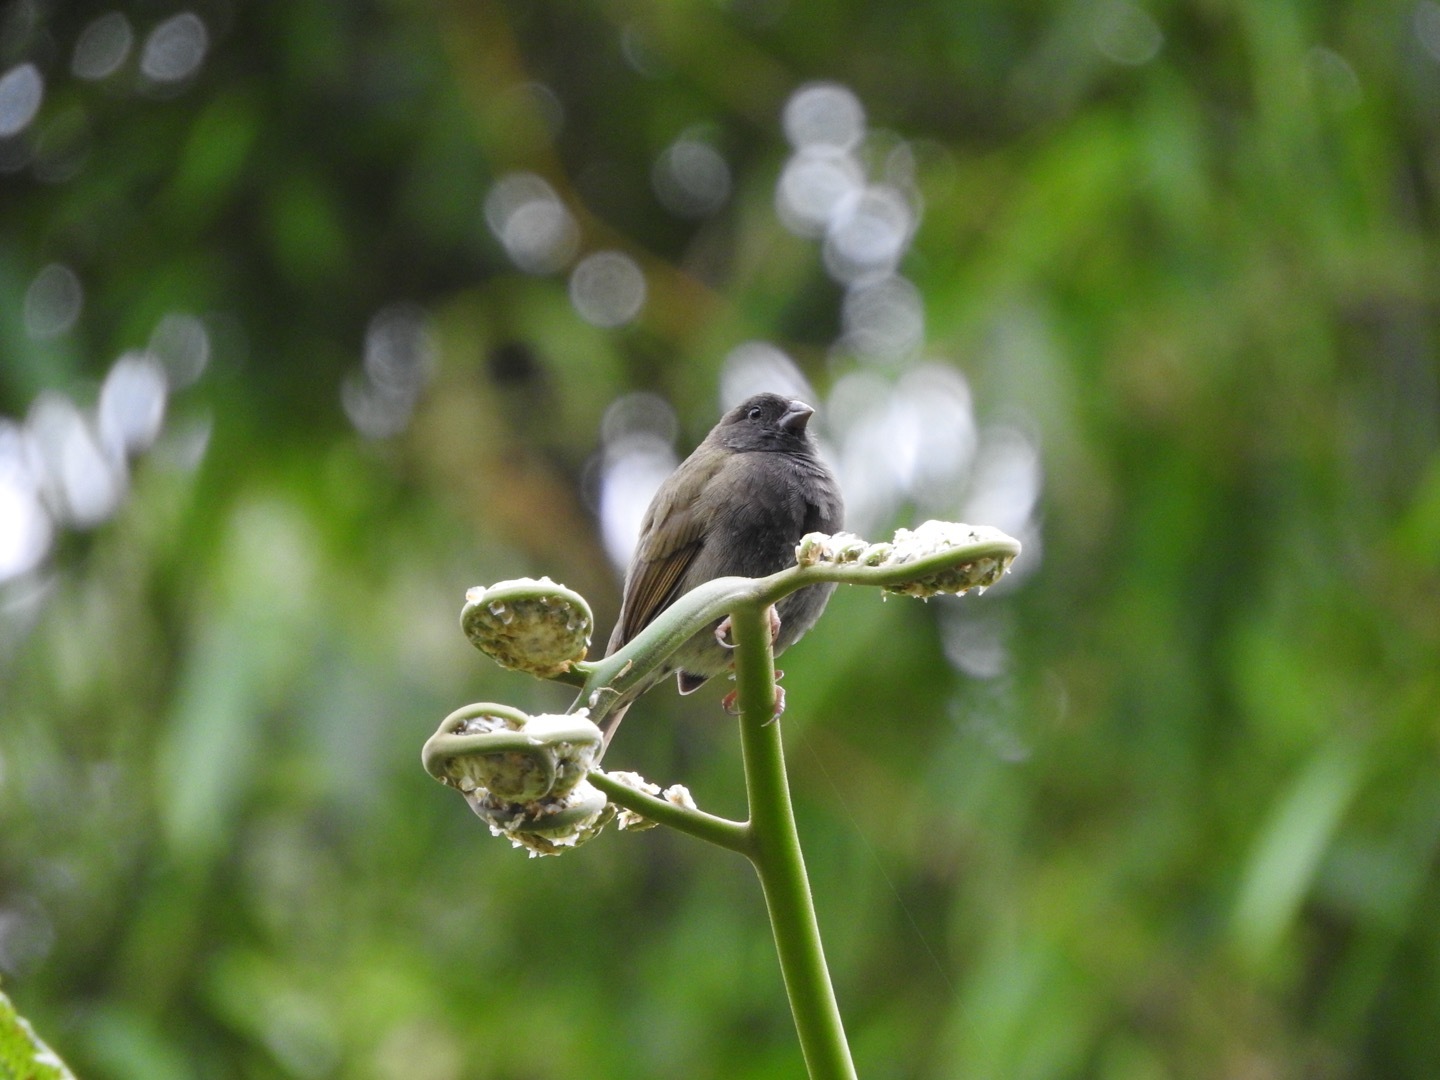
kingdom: Animalia
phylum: Chordata
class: Aves
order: Passeriformes
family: Thraupidae
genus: Melanospiza
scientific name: Melanospiza bicolor
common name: Black-faced grassquit
